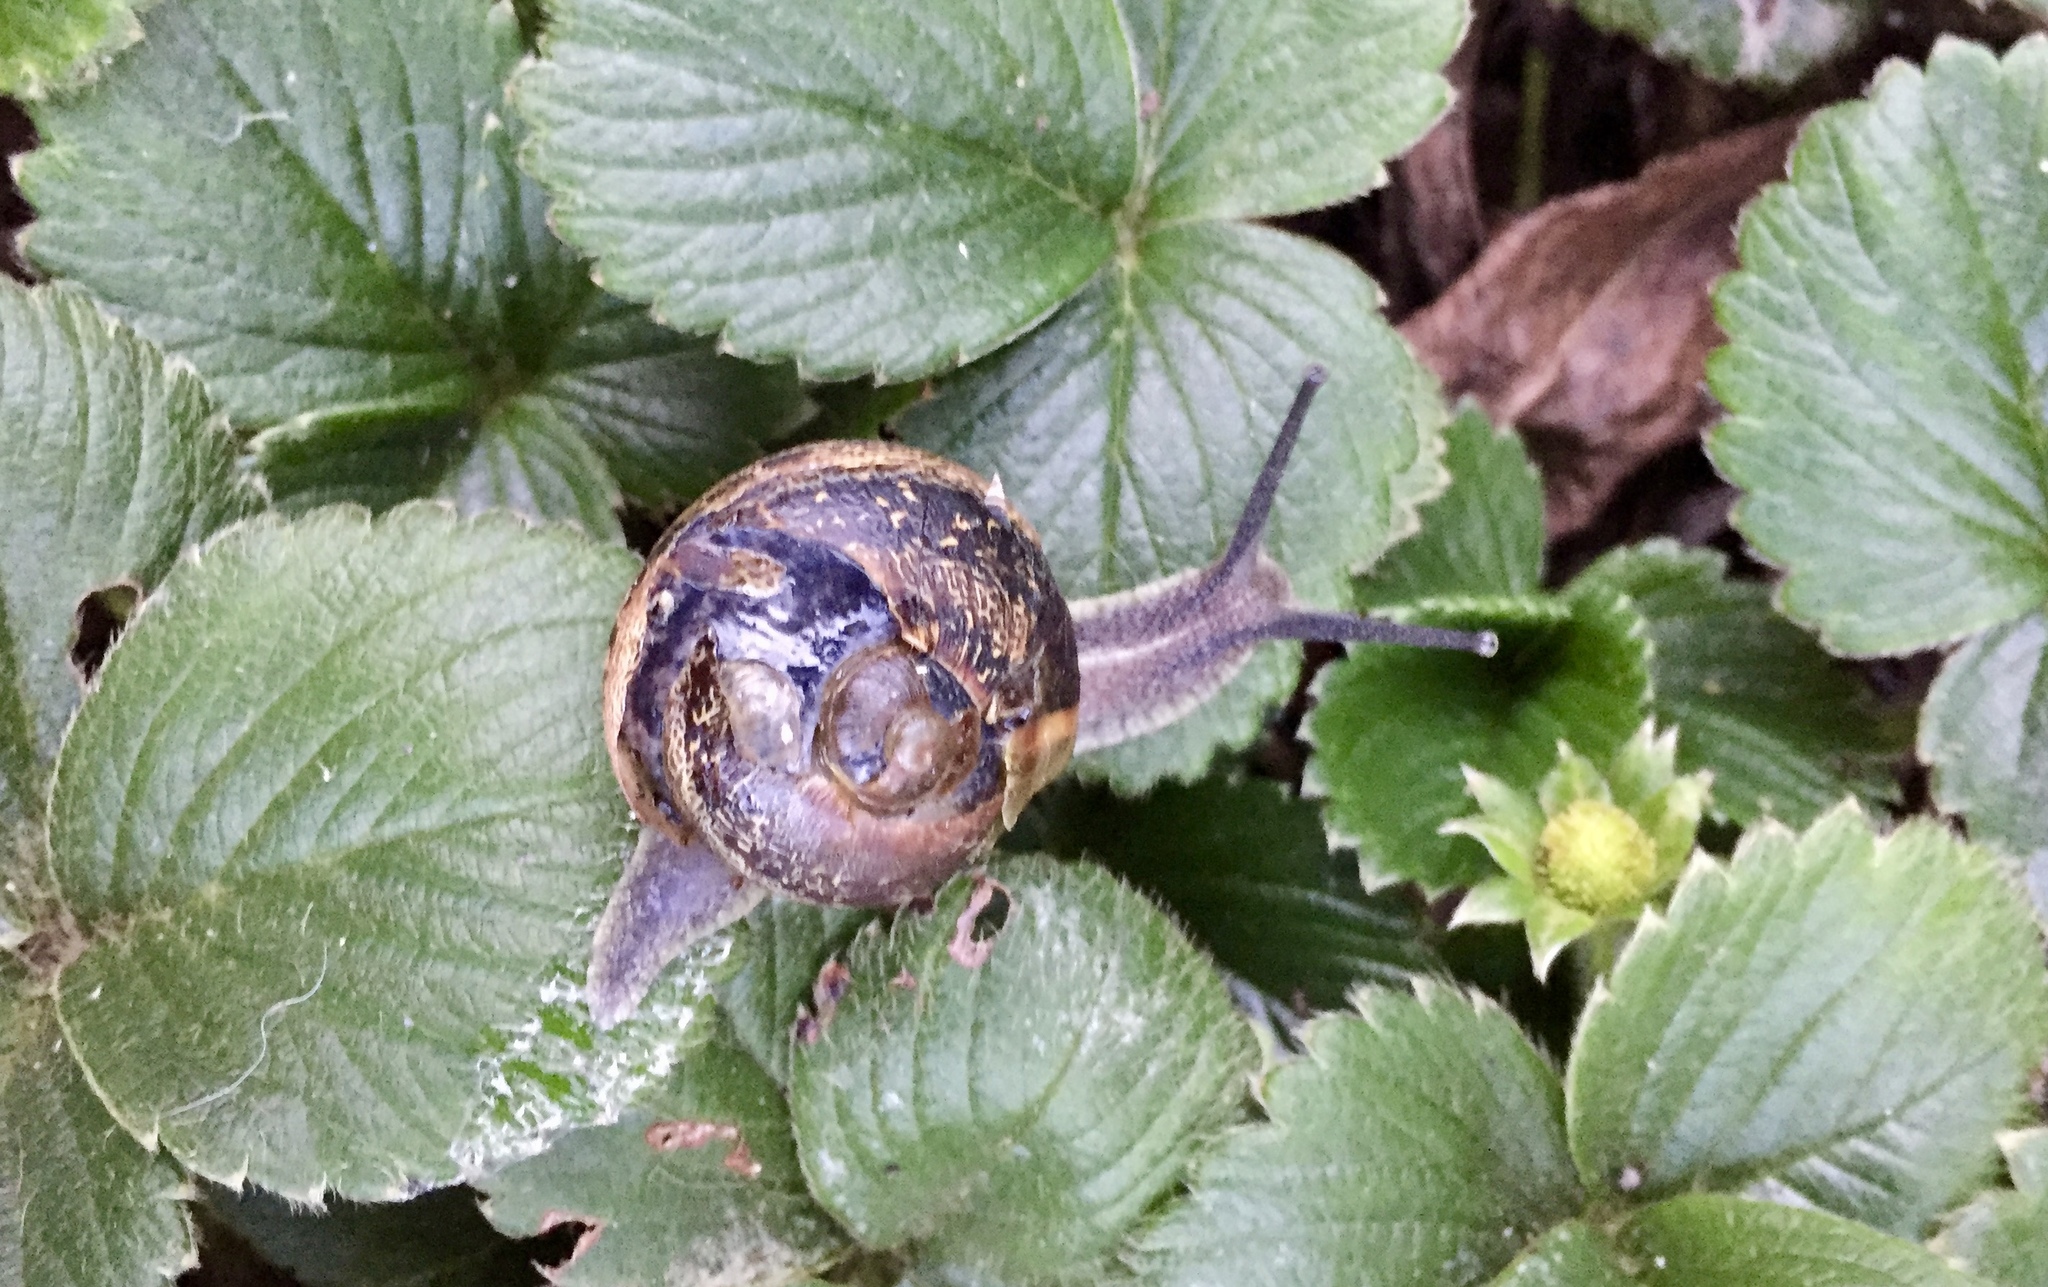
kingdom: Animalia
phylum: Mollusca
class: Gastropoda
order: Stylommatophora
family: Helicidae
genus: Cornu
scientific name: Cornu aspersum
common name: Brown garden snail
